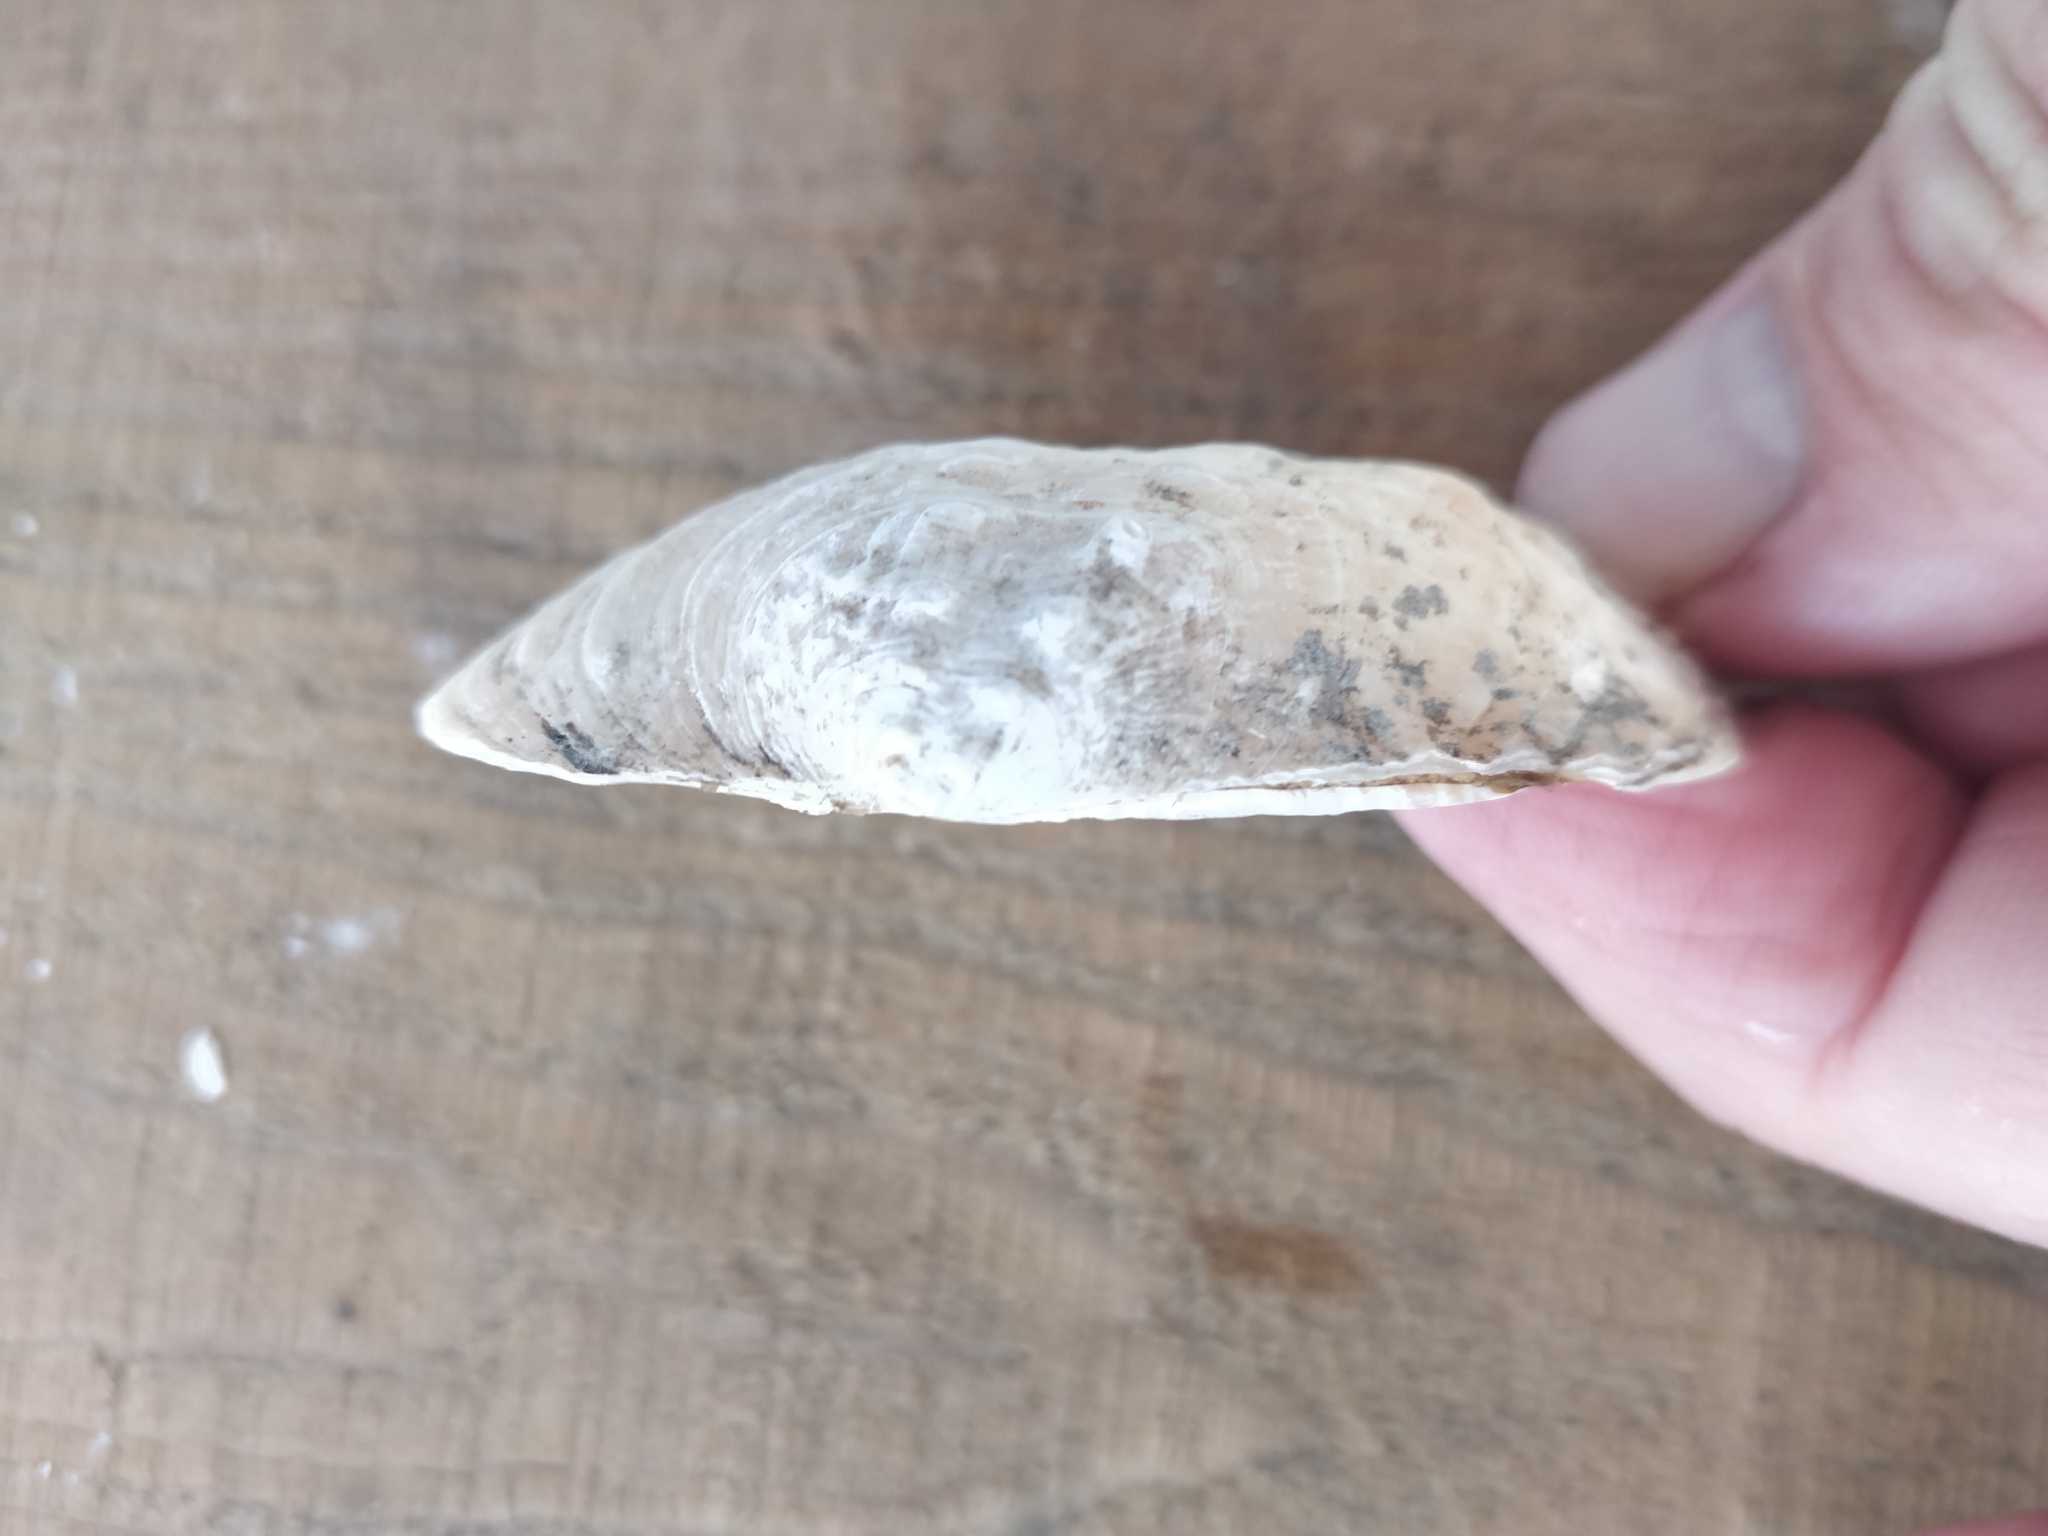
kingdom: Animalia
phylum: Mollusca
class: Bivalvia
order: Unionida
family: Unionidae
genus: Arcidens
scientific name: Arcidens confragosus
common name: Rock pocketbook
